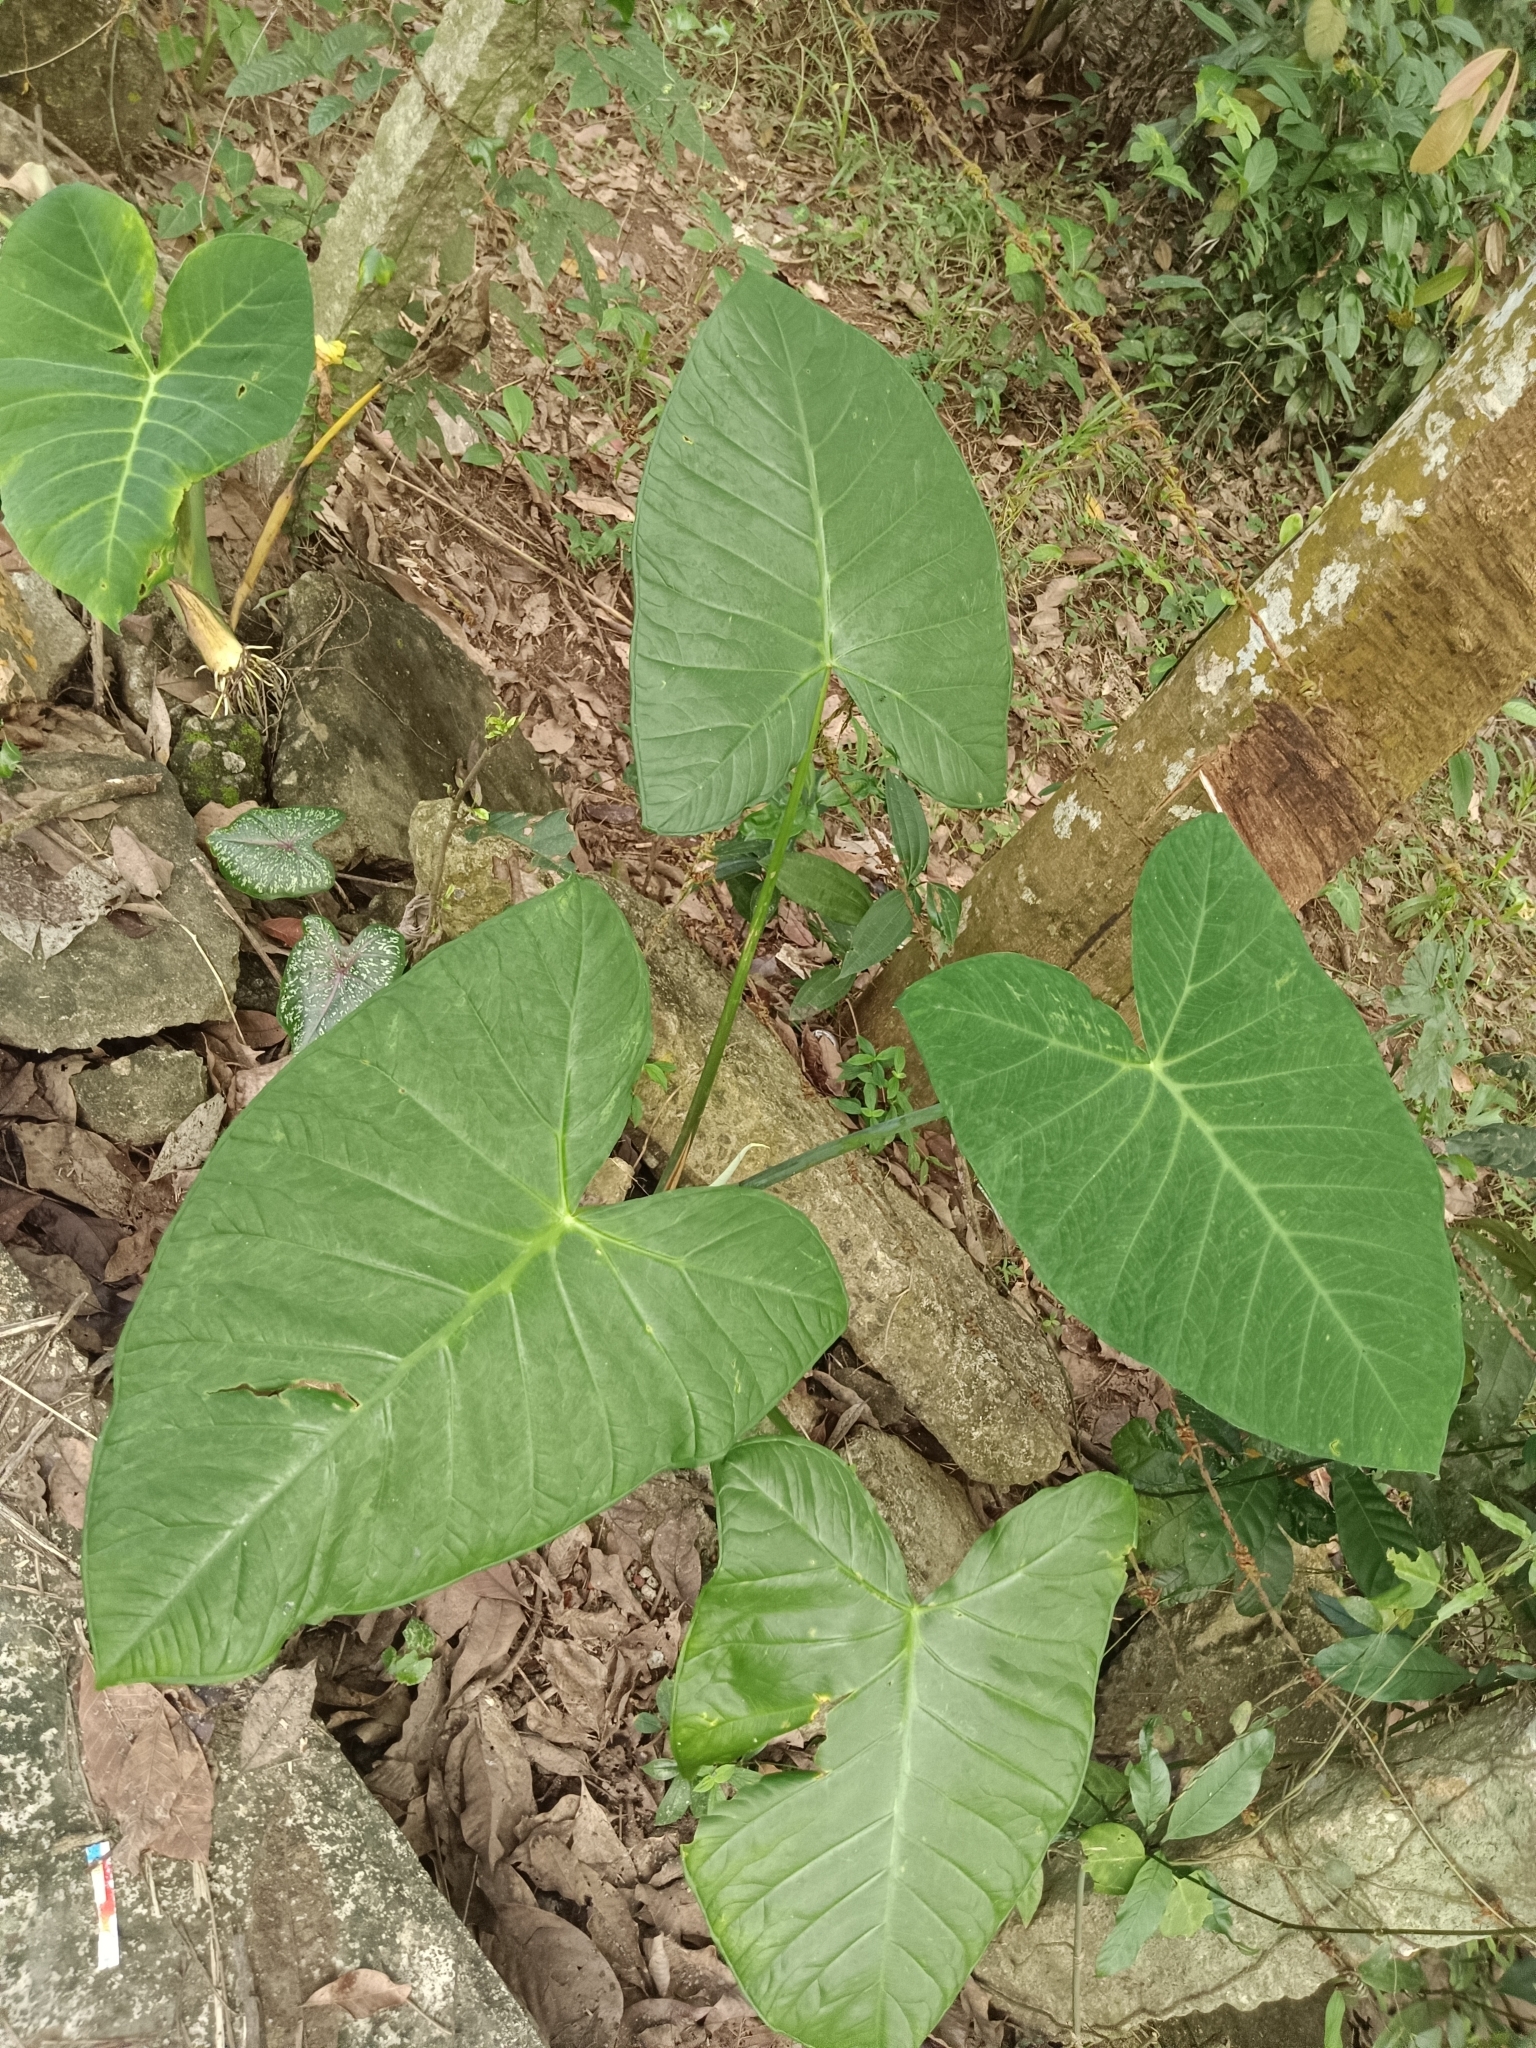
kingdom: Plantae
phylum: Tracheophyta
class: Liliopsida
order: Alismatales
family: Araceae
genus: Xanthosoma
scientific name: Xanthosoma sagittifolium
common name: Arrowleaf elephant's ear
